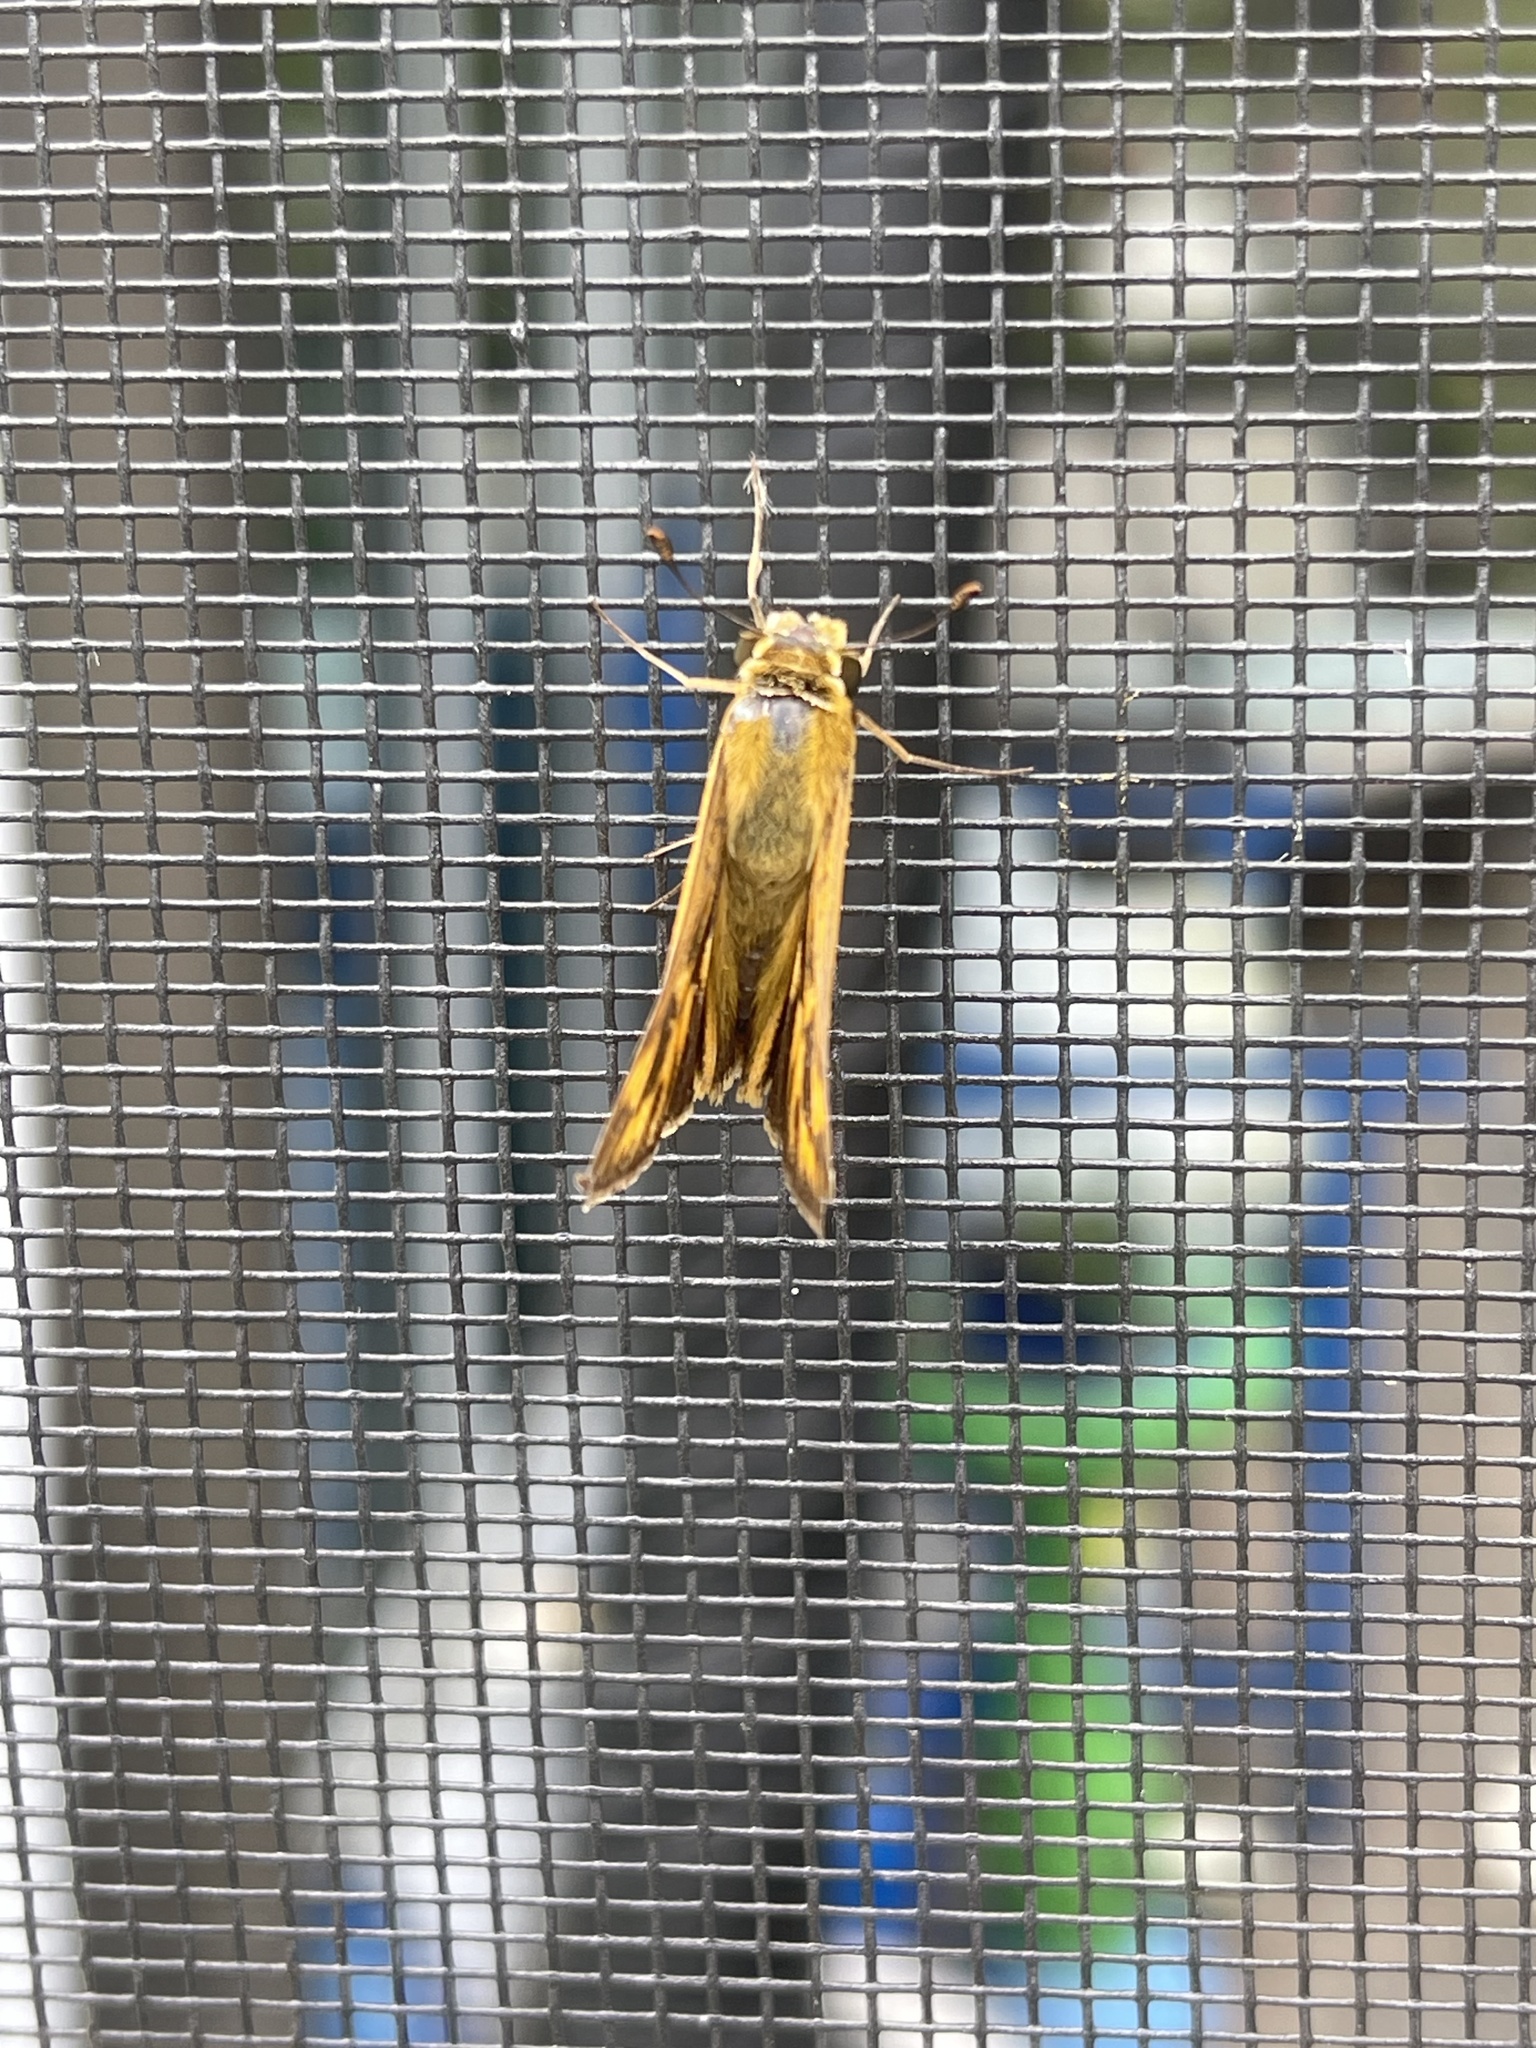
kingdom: Animalia
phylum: Arthropoda
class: Insecta
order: Lepidoptera
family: Hesperiidae
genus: Hylephila
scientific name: Hylephila phyleus
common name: Fiery skipper
